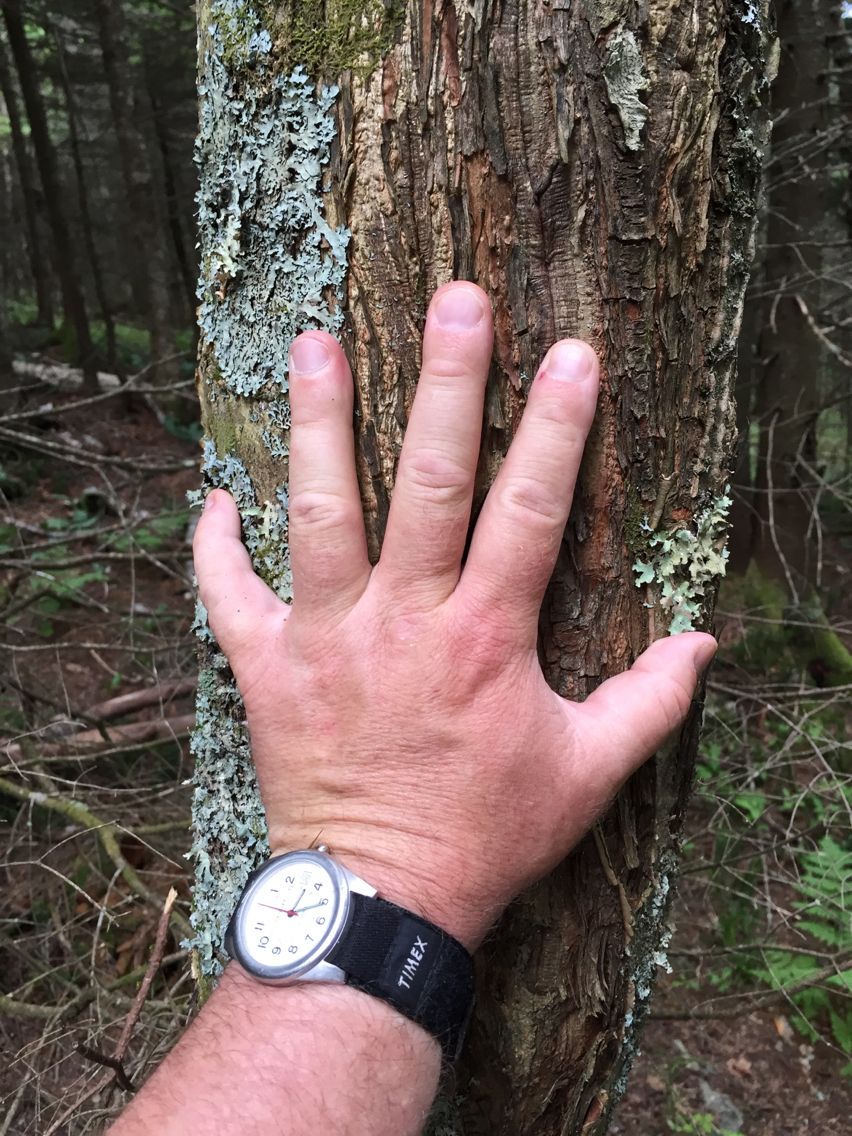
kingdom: Plantae
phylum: Tracheophyta
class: Magnoliopsida
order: Rosales
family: Rosaceae
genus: Sorbus
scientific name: Sorbus americana
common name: American mountain-ash
